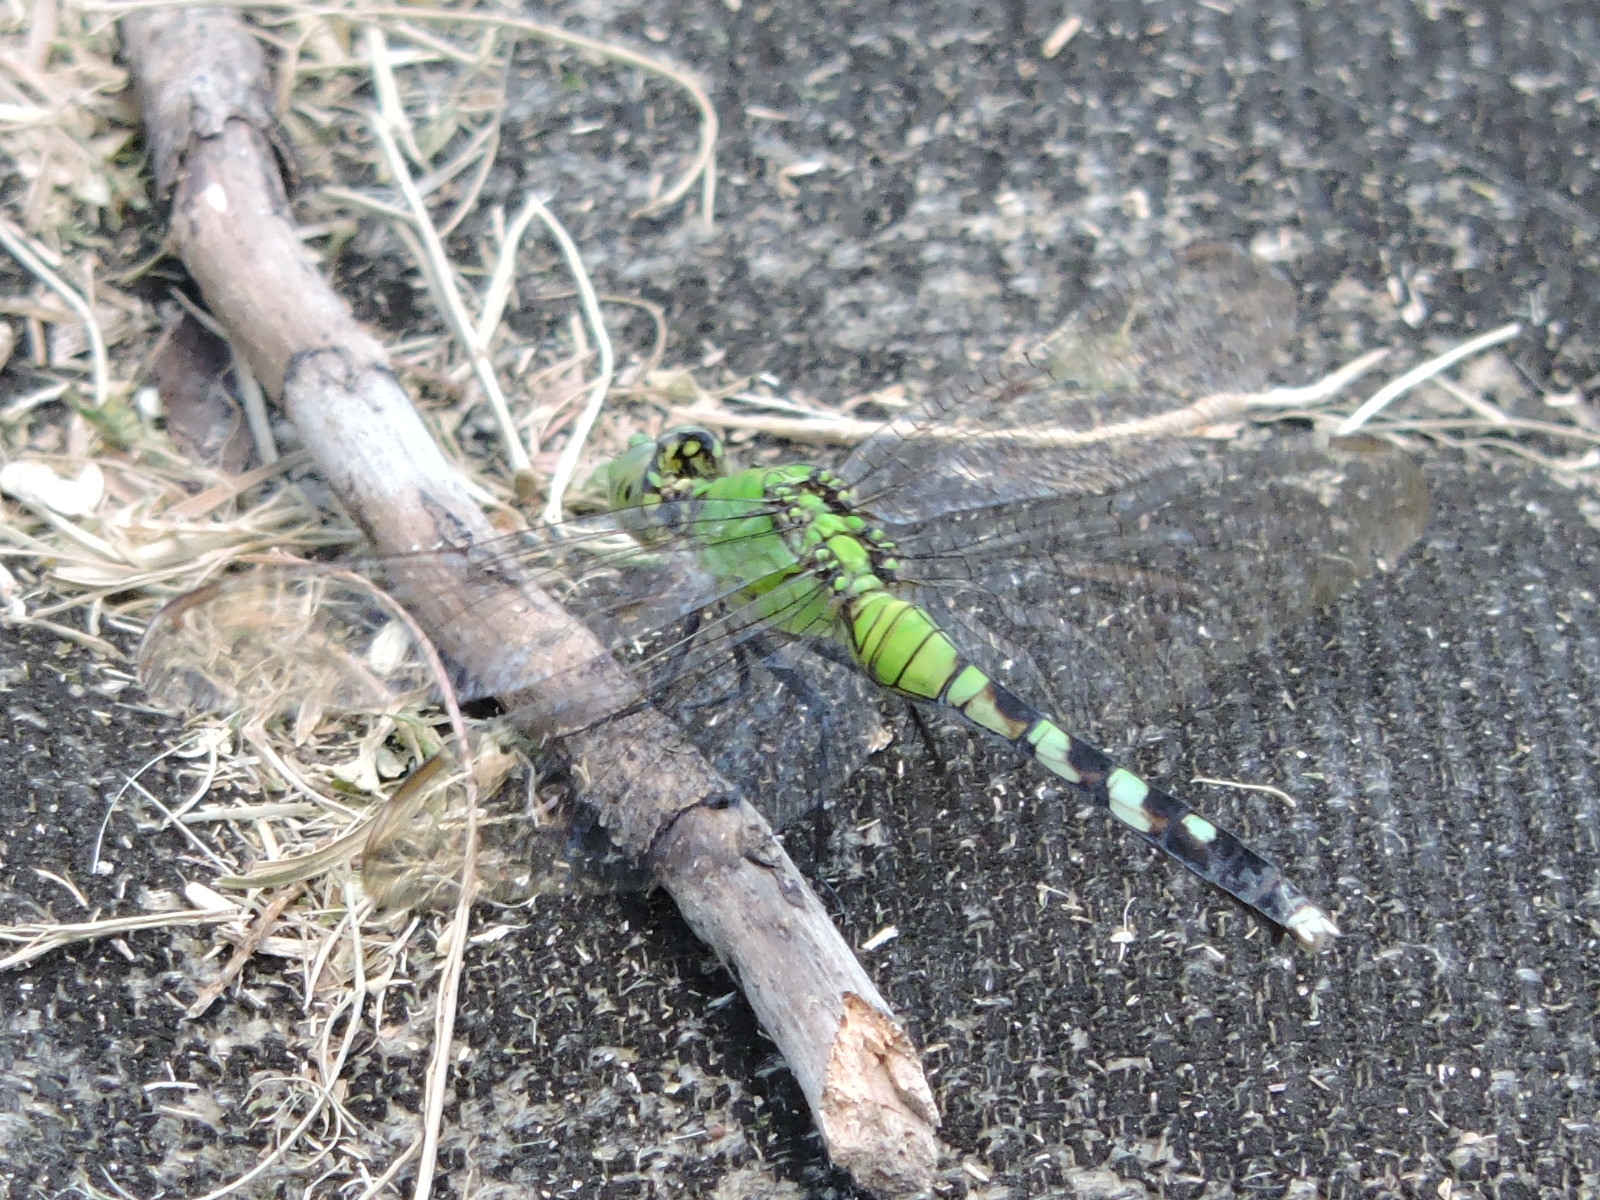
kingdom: Animalia
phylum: Arthropoda
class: Insecta
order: Odonata
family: Libellulidae
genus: Erythemis
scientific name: Erythemis simplicicollis
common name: Eastern pondhawk
